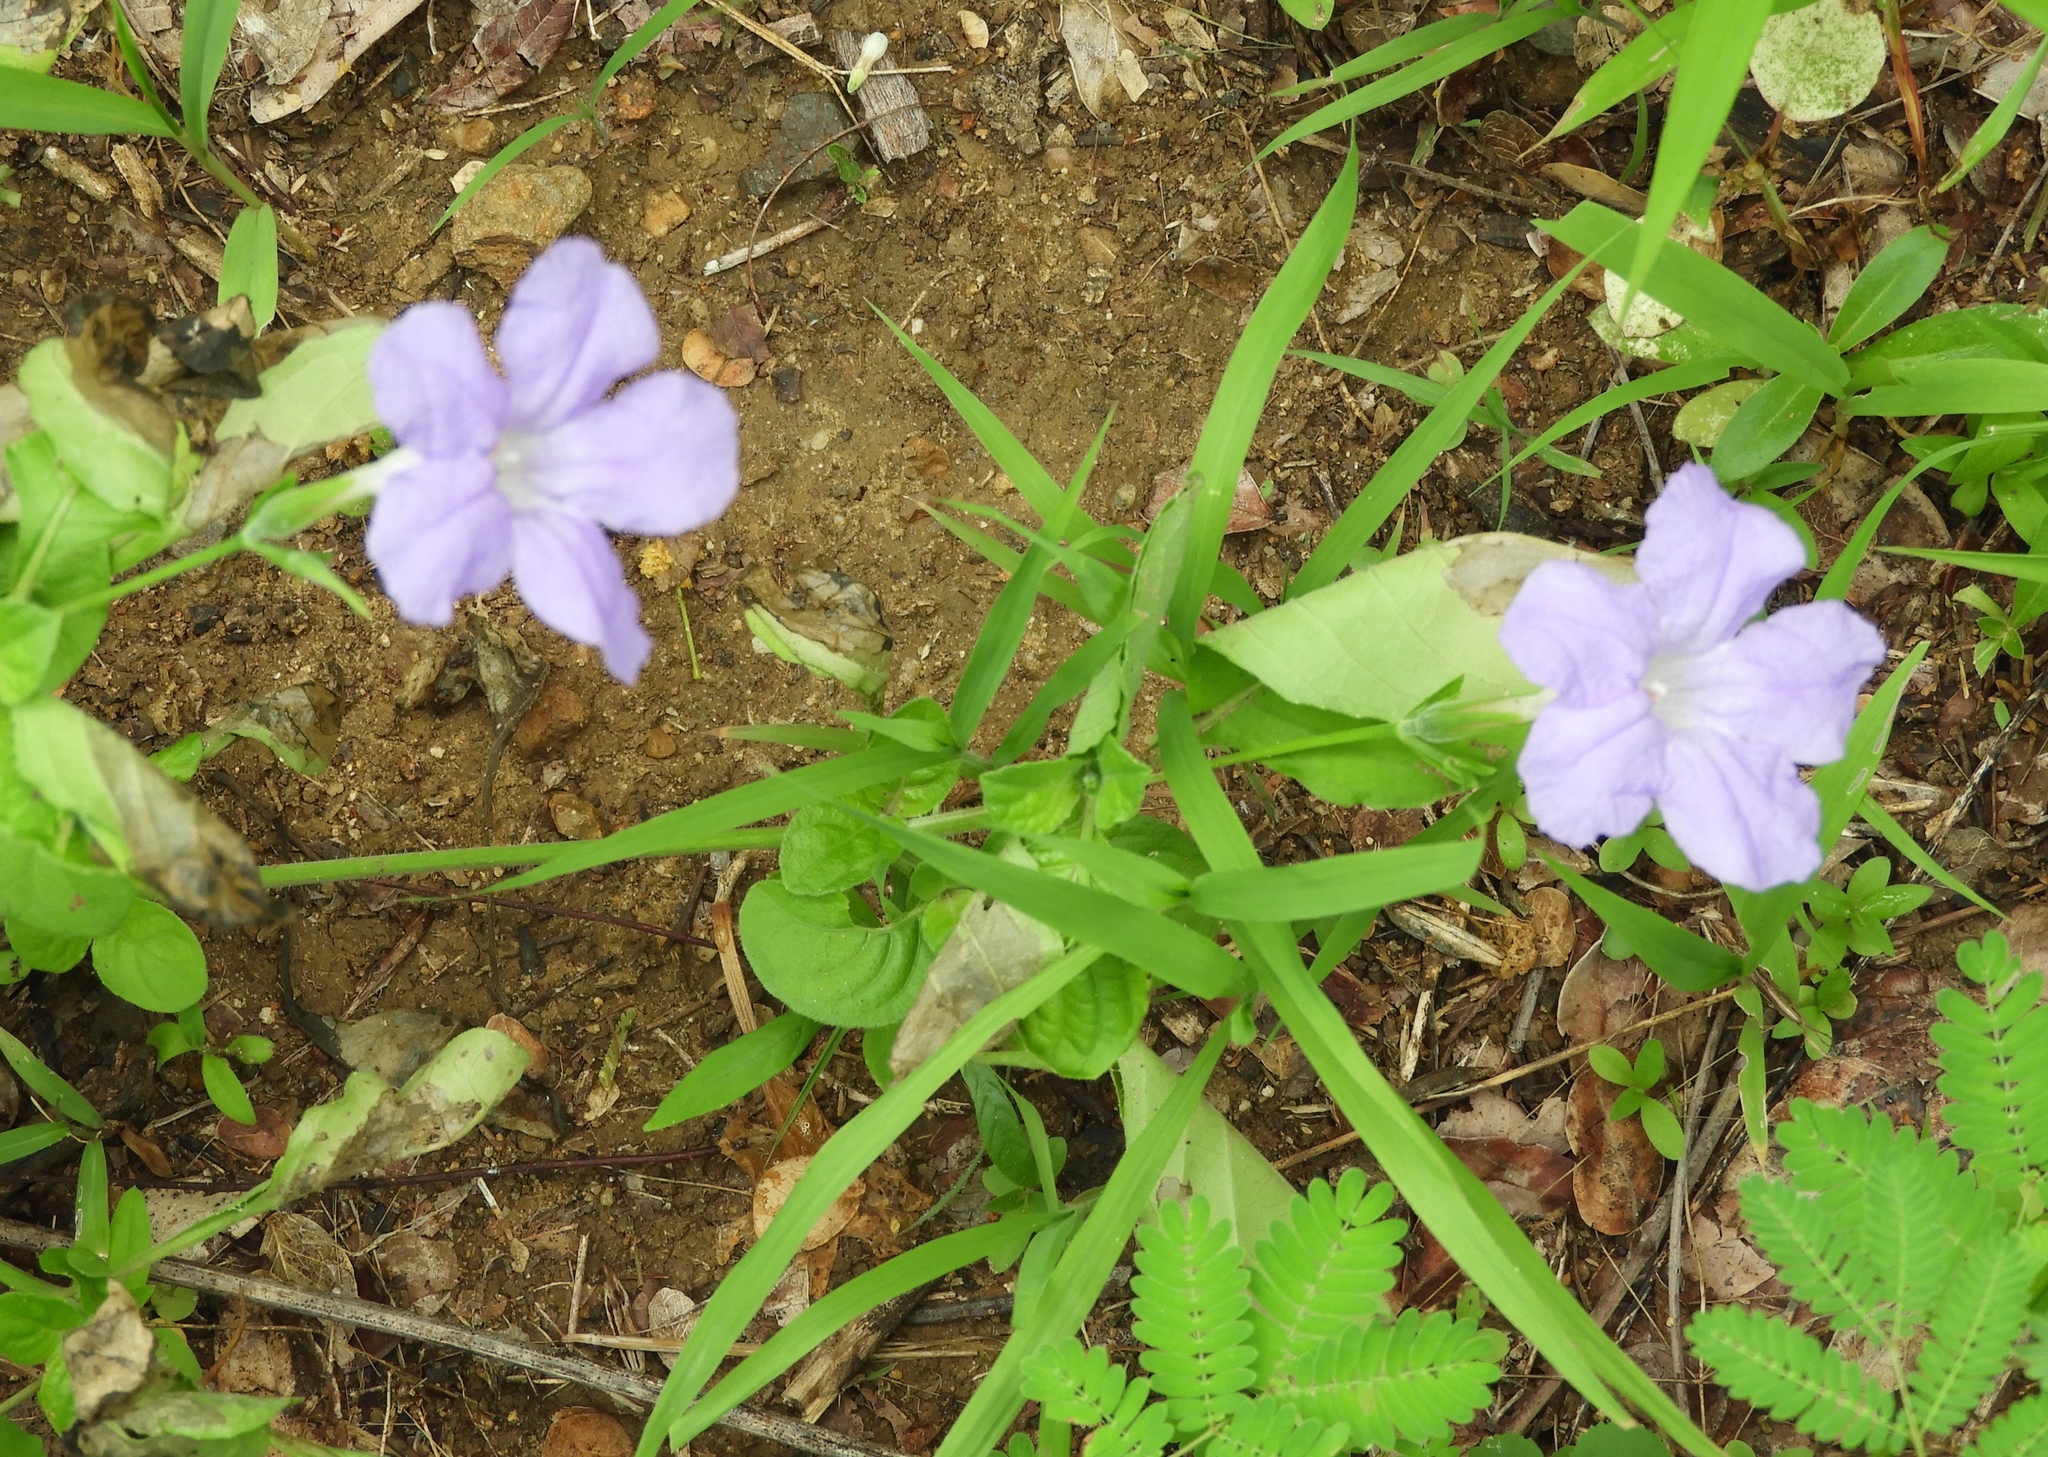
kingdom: Plantae
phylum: Tracheophyta
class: Magnoliopsida
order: Lamiales
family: Acanthaceae
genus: Ruellia
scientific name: Ruellia intermedia
